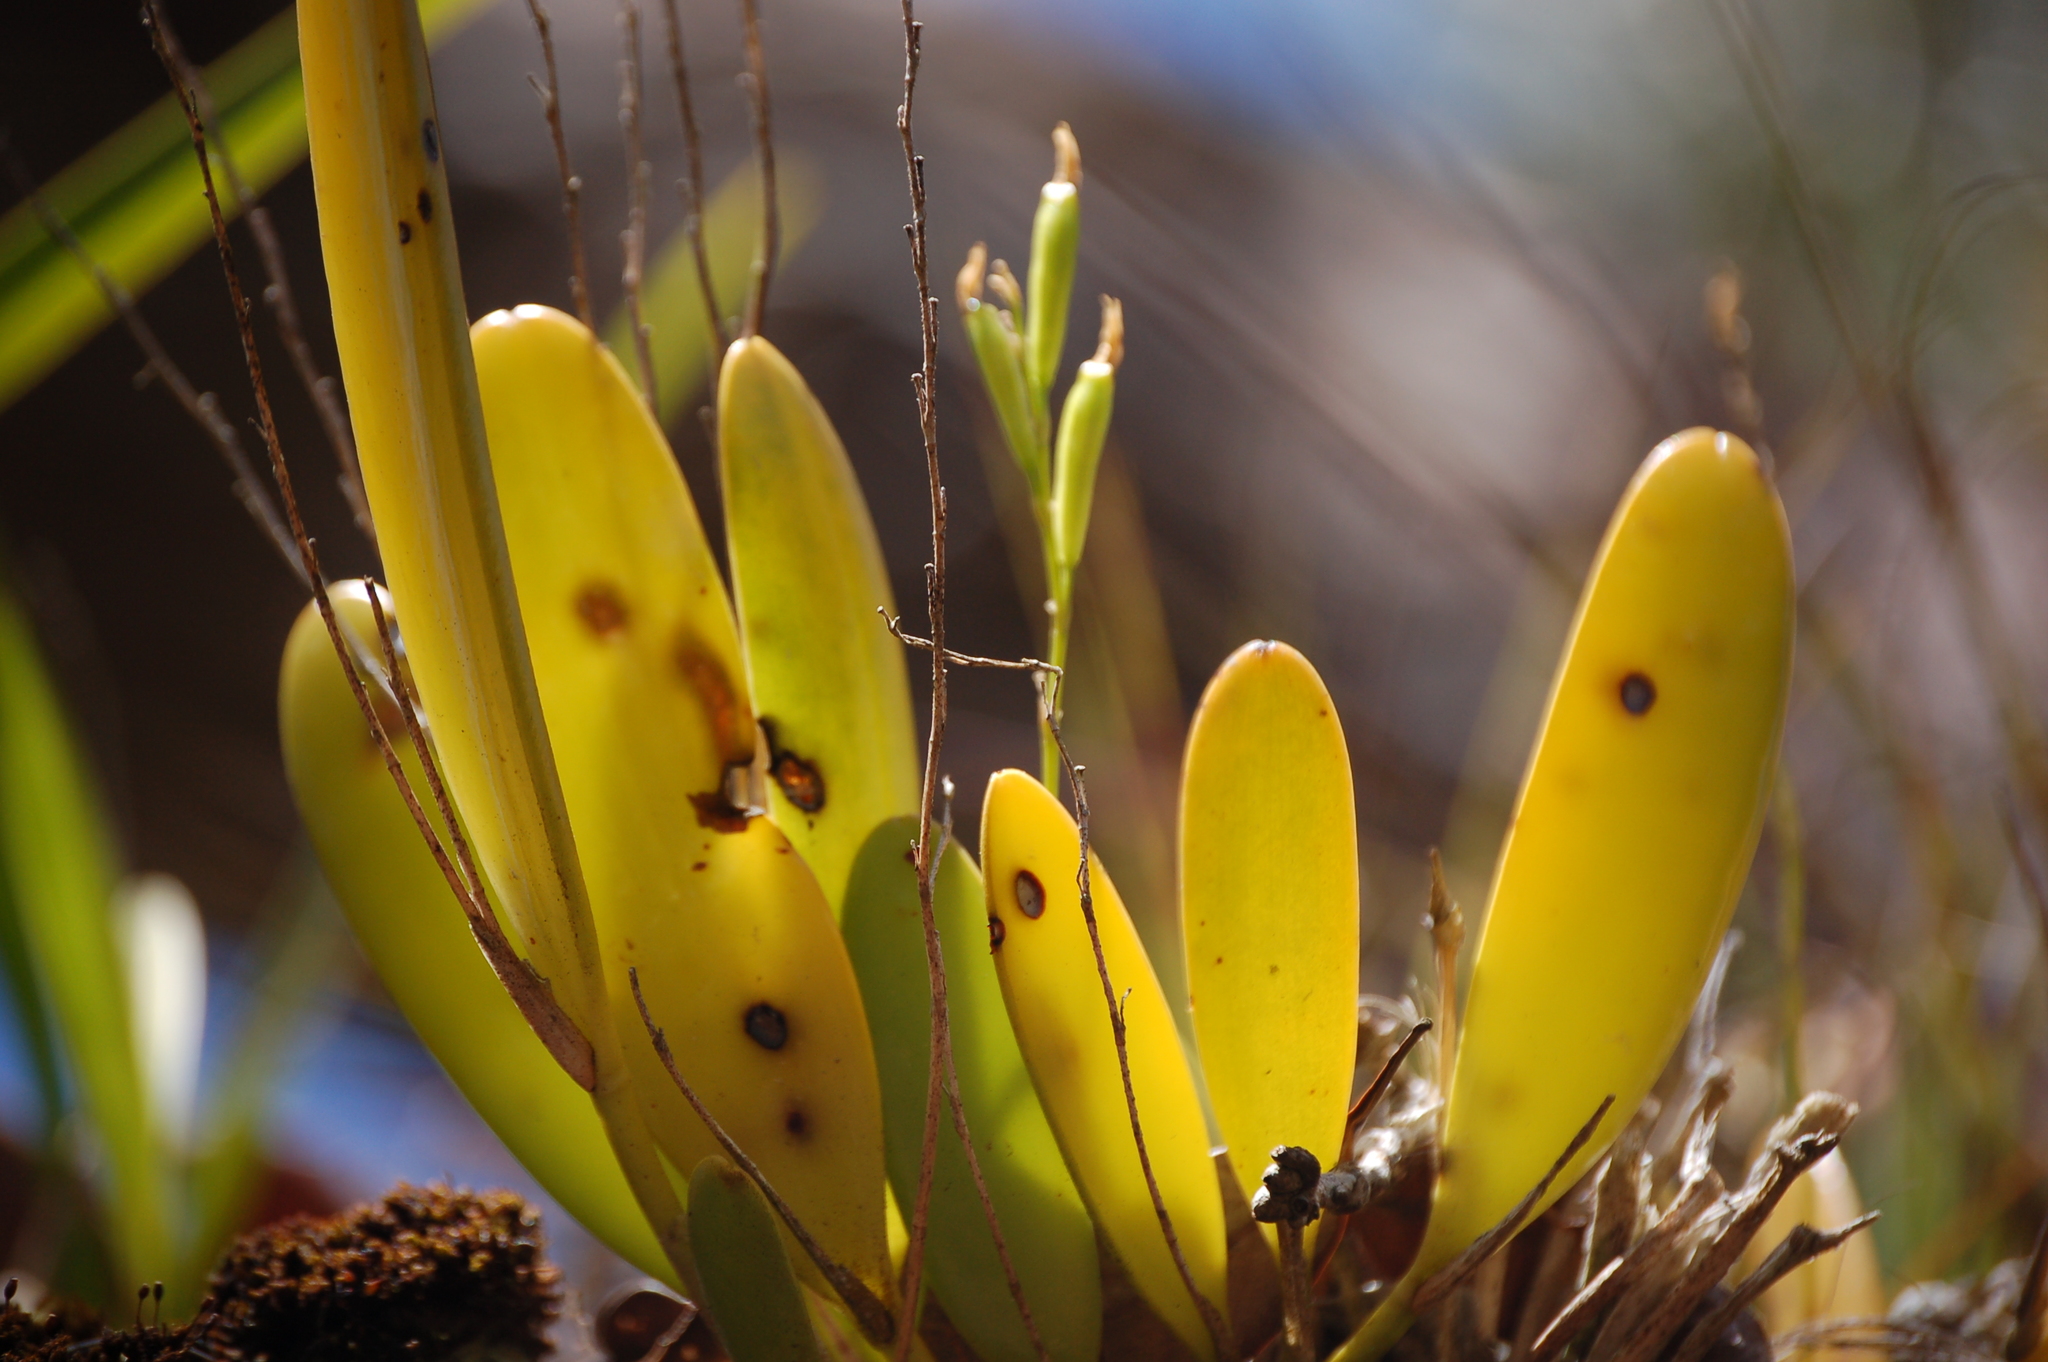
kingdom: Plantae
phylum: Tracheophyta
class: Liliopsida
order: Asparagales
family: Orchidaceae
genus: Stelis
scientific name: Stelis emarginata
